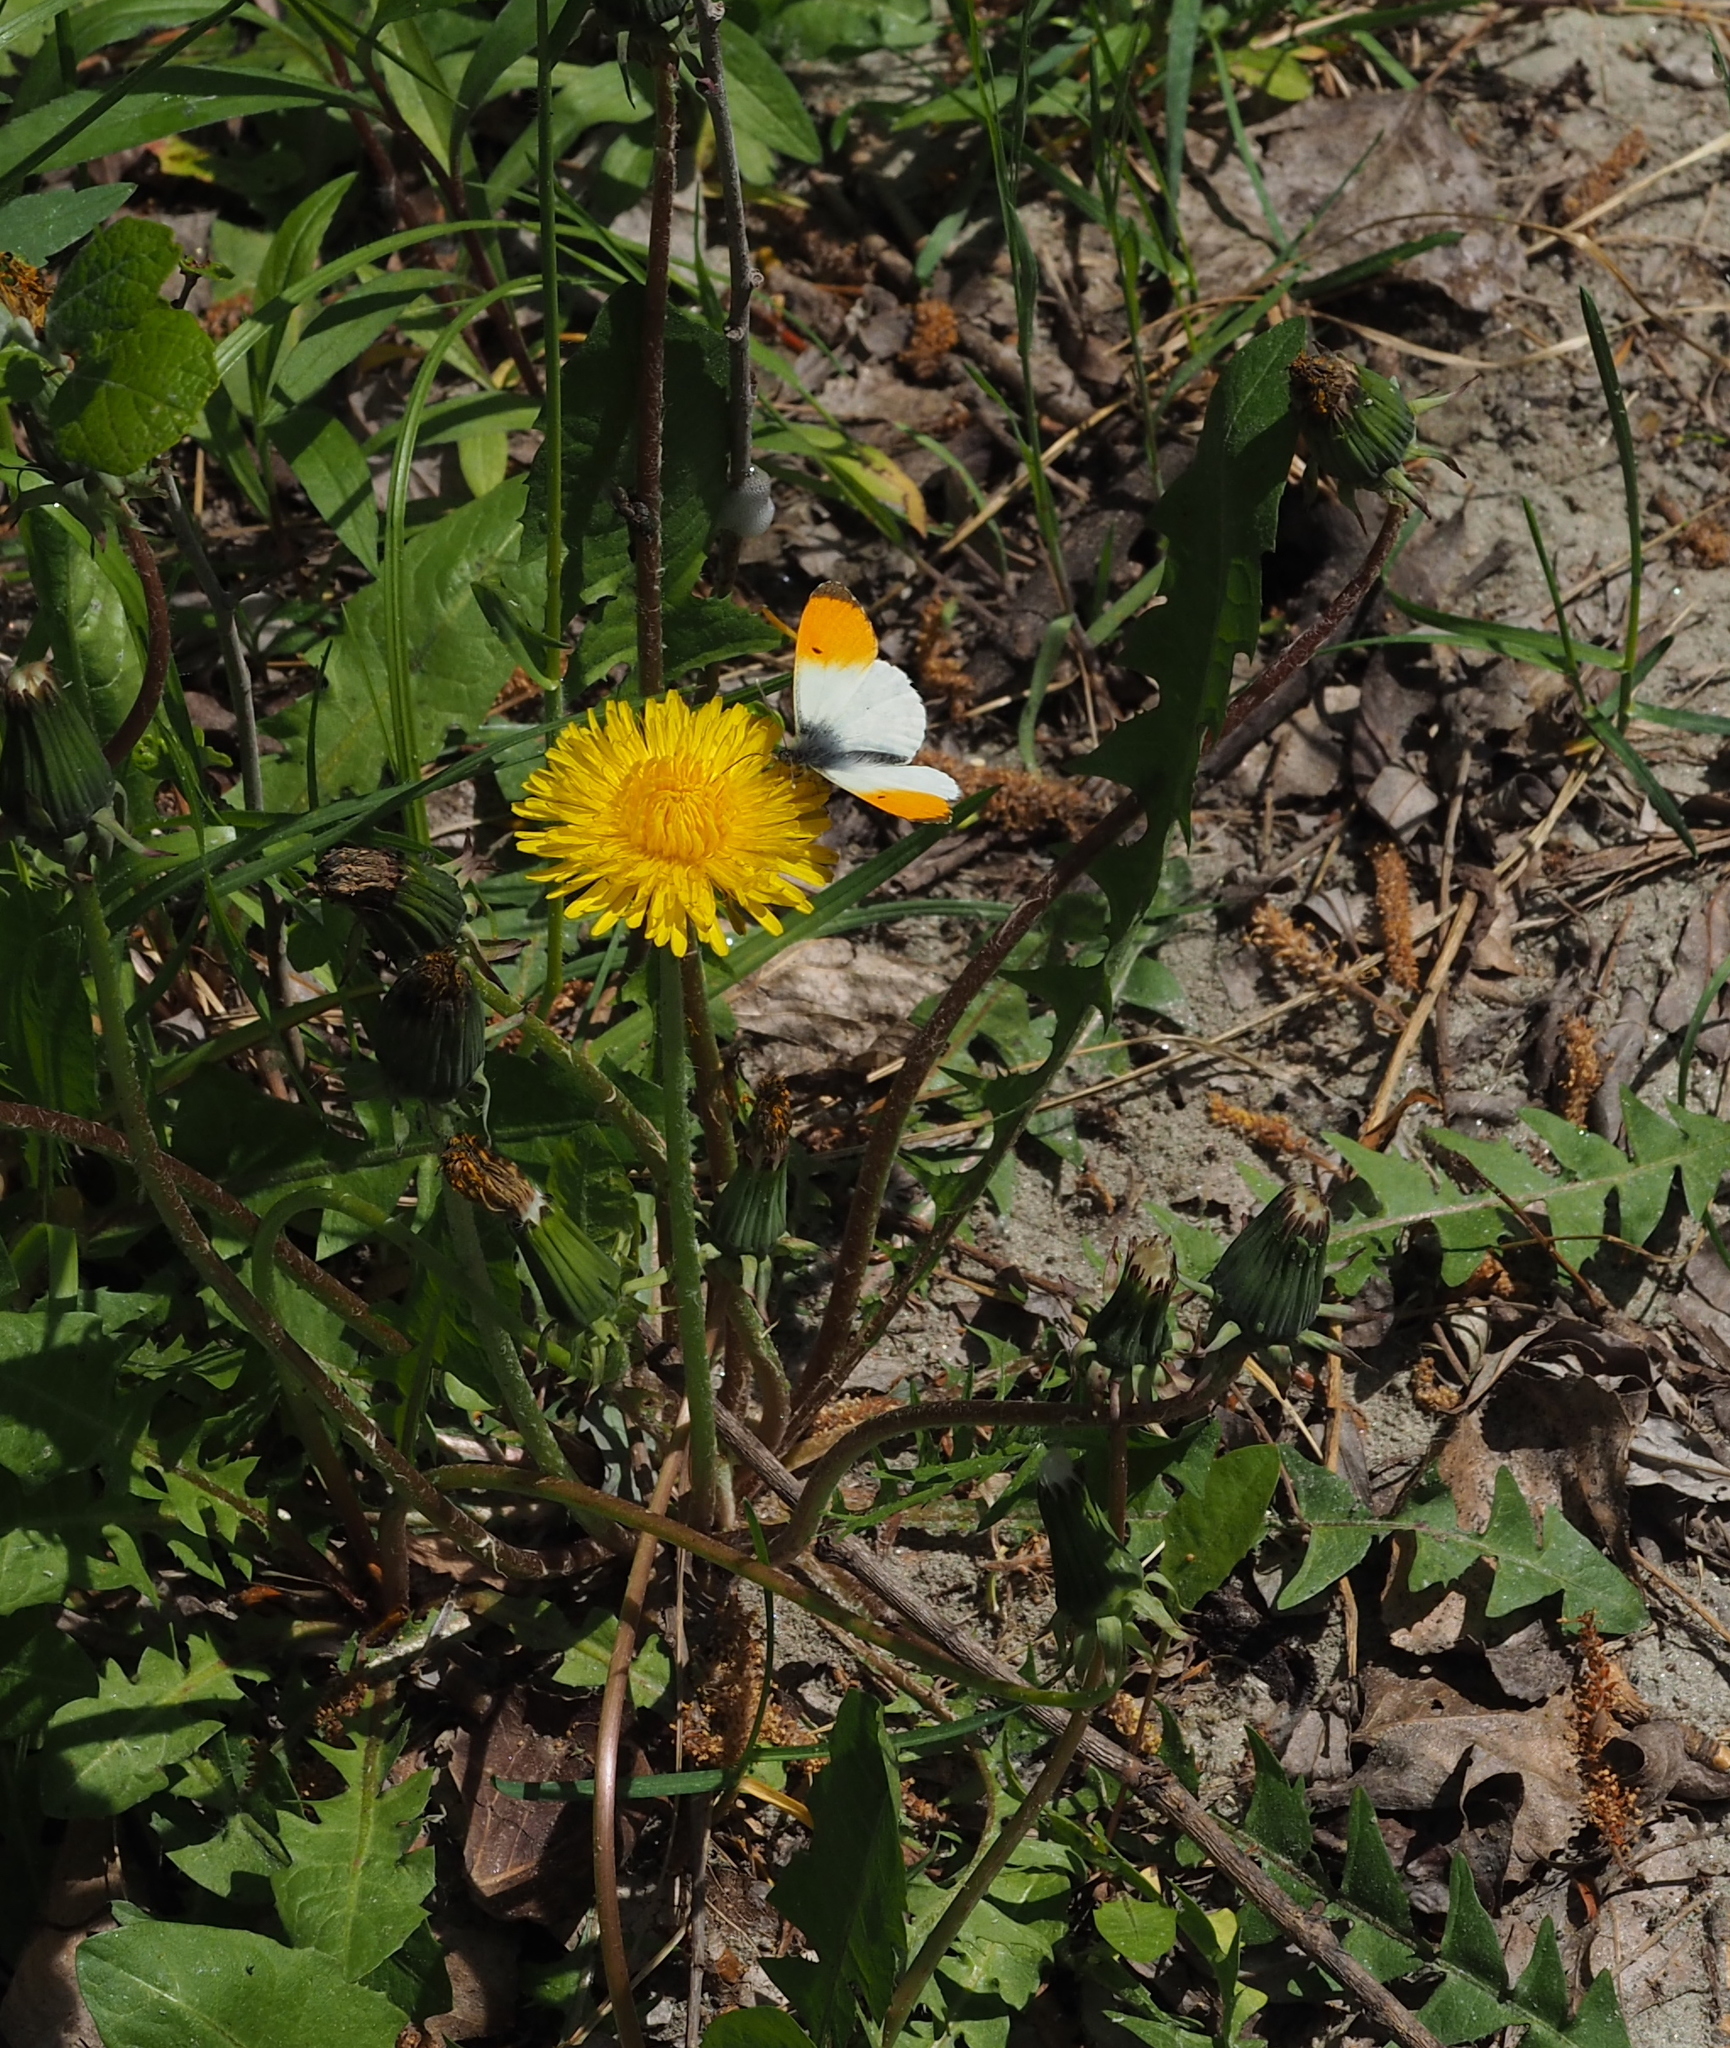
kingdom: Animalia
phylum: Arthropoda
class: Insecta
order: Lepidoptera
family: Pieridae
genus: Anthocharis
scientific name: Anthocharis cardamines
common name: Orange-tip
